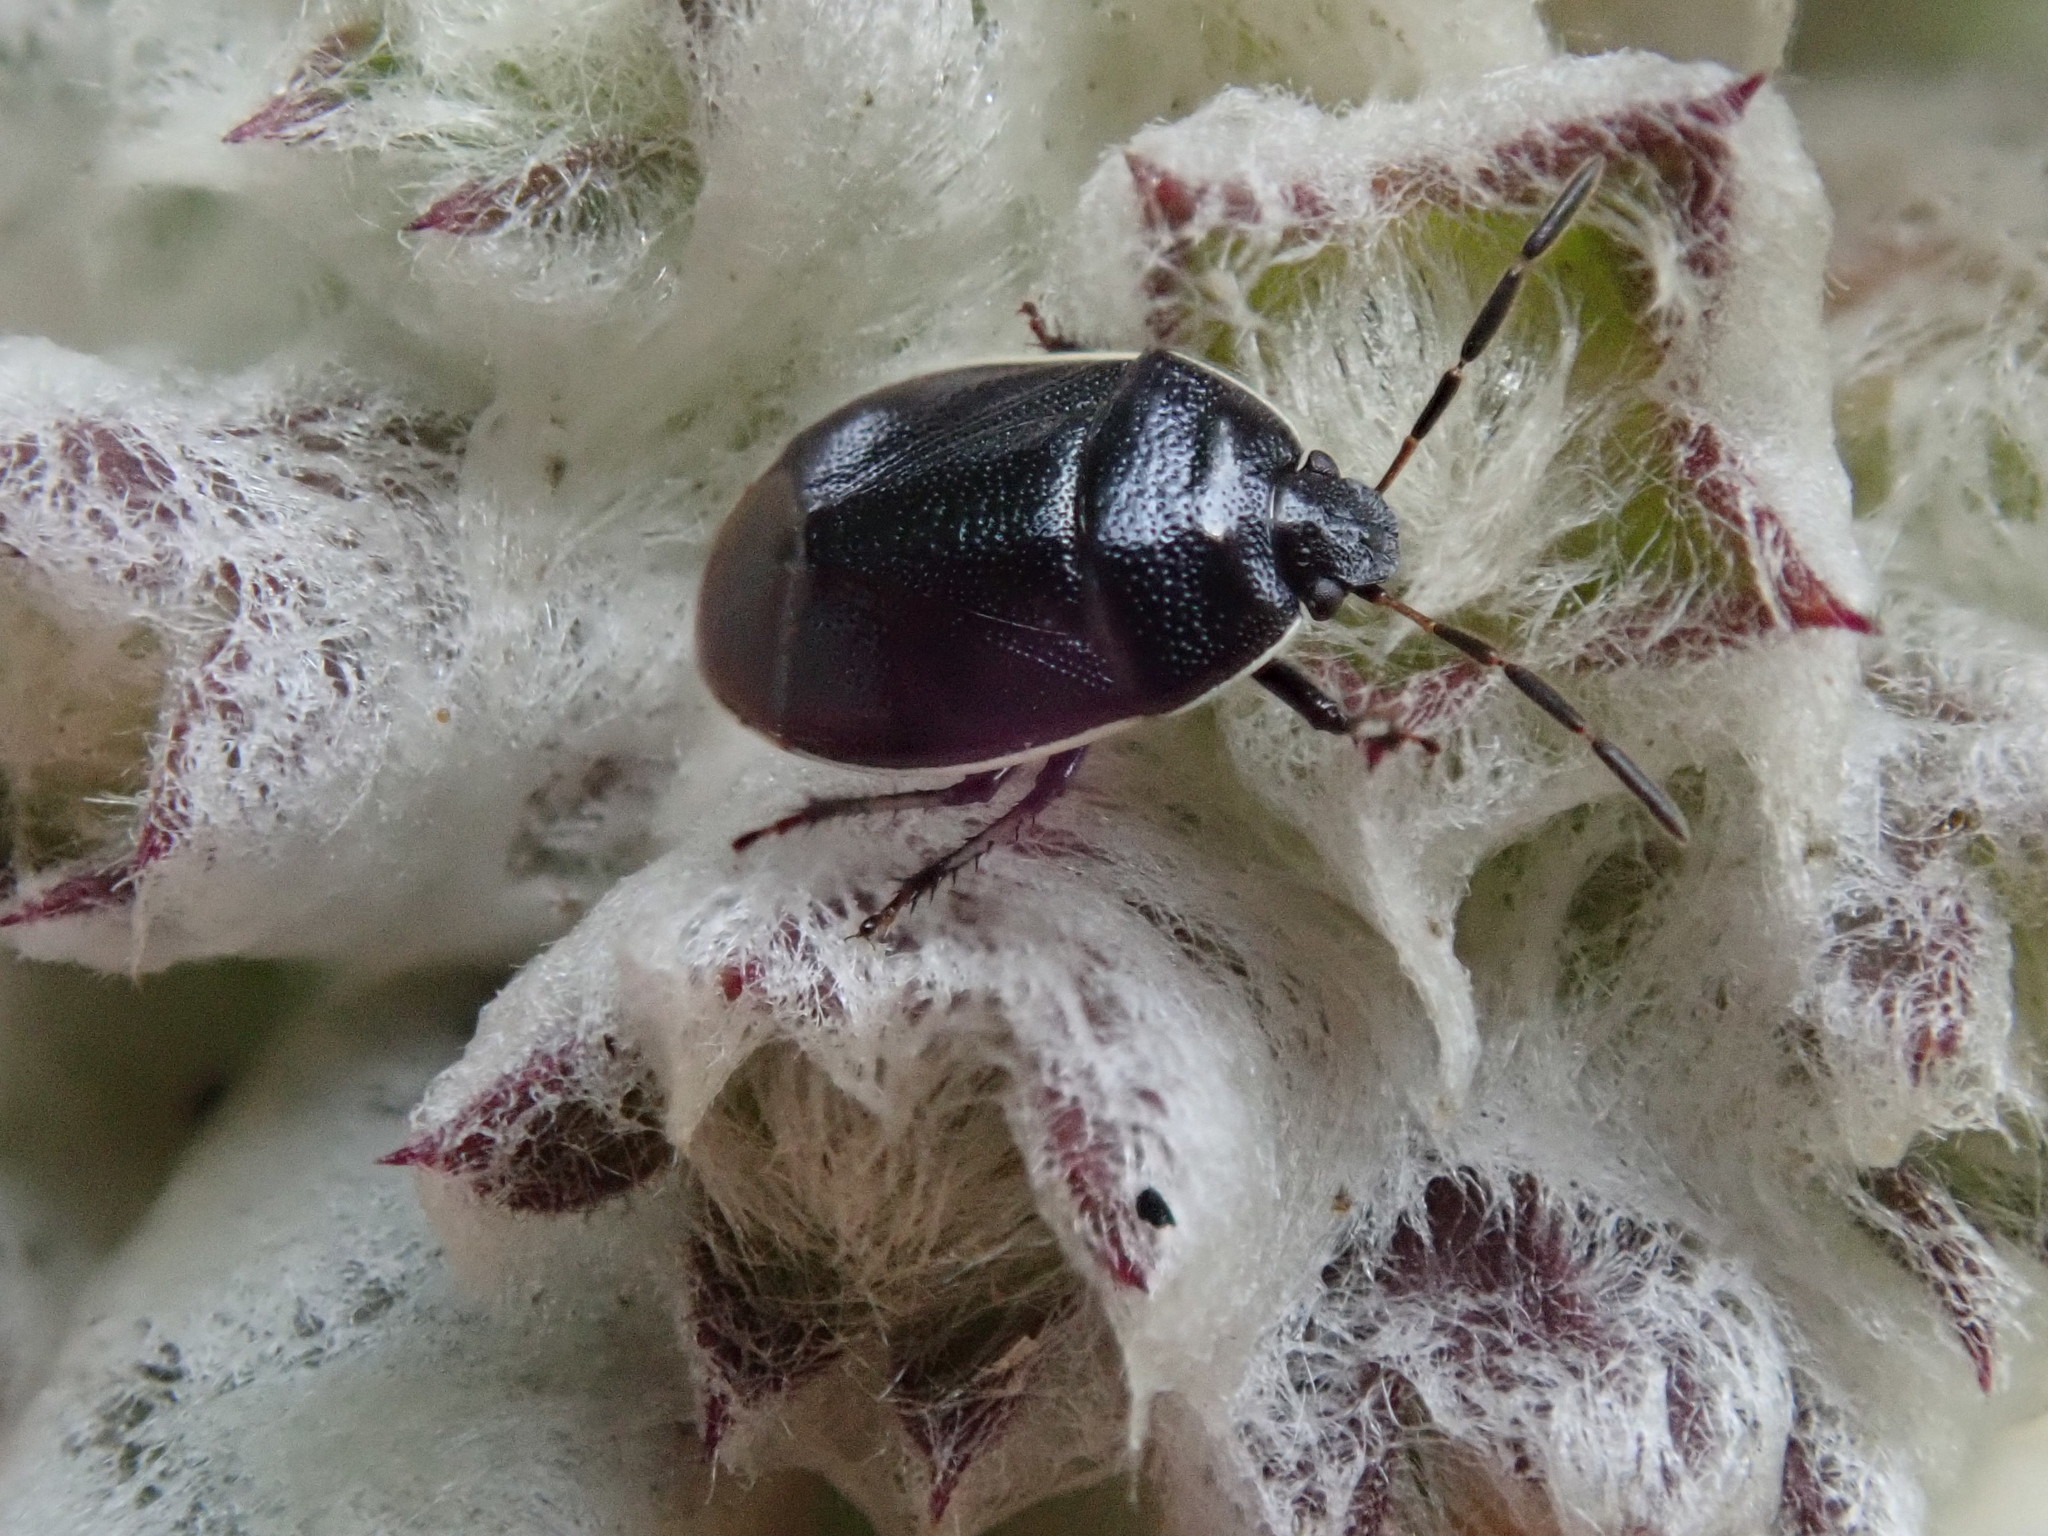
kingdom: Animalia
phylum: Arthropoda
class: Insecta
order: Hemiptera
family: Cydnidae
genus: Sehirus
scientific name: Sehirus cinctus
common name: White-margined burrower bug
